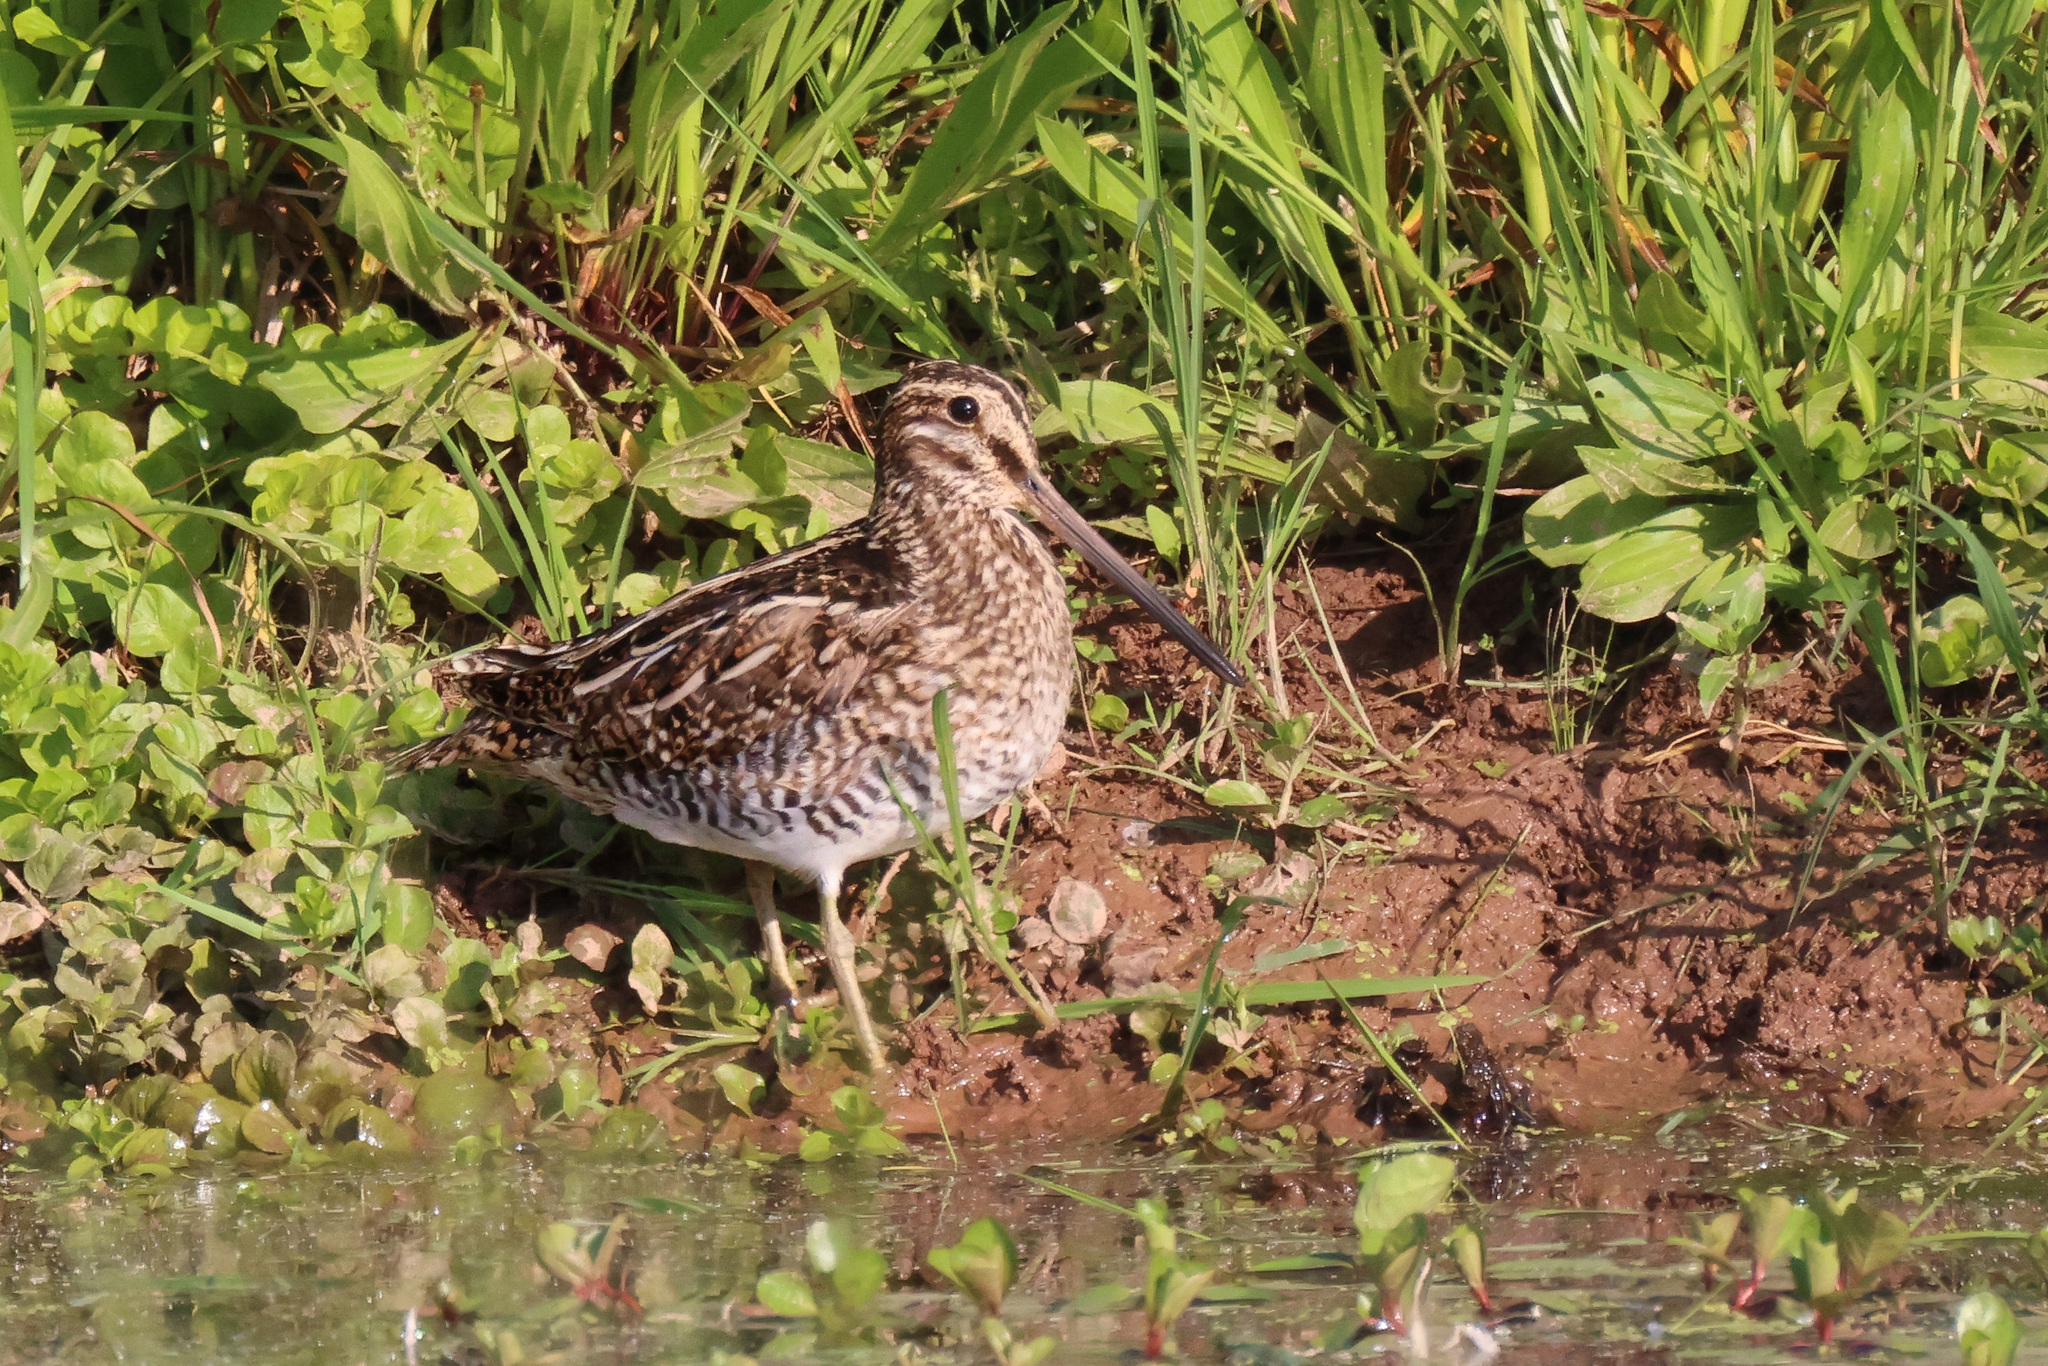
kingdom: Animalia
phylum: Chordata
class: Aves
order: Charadriiformes
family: Scolopacidae
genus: Gallinago
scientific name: Gallinago delicata
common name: Wilson's snipe
